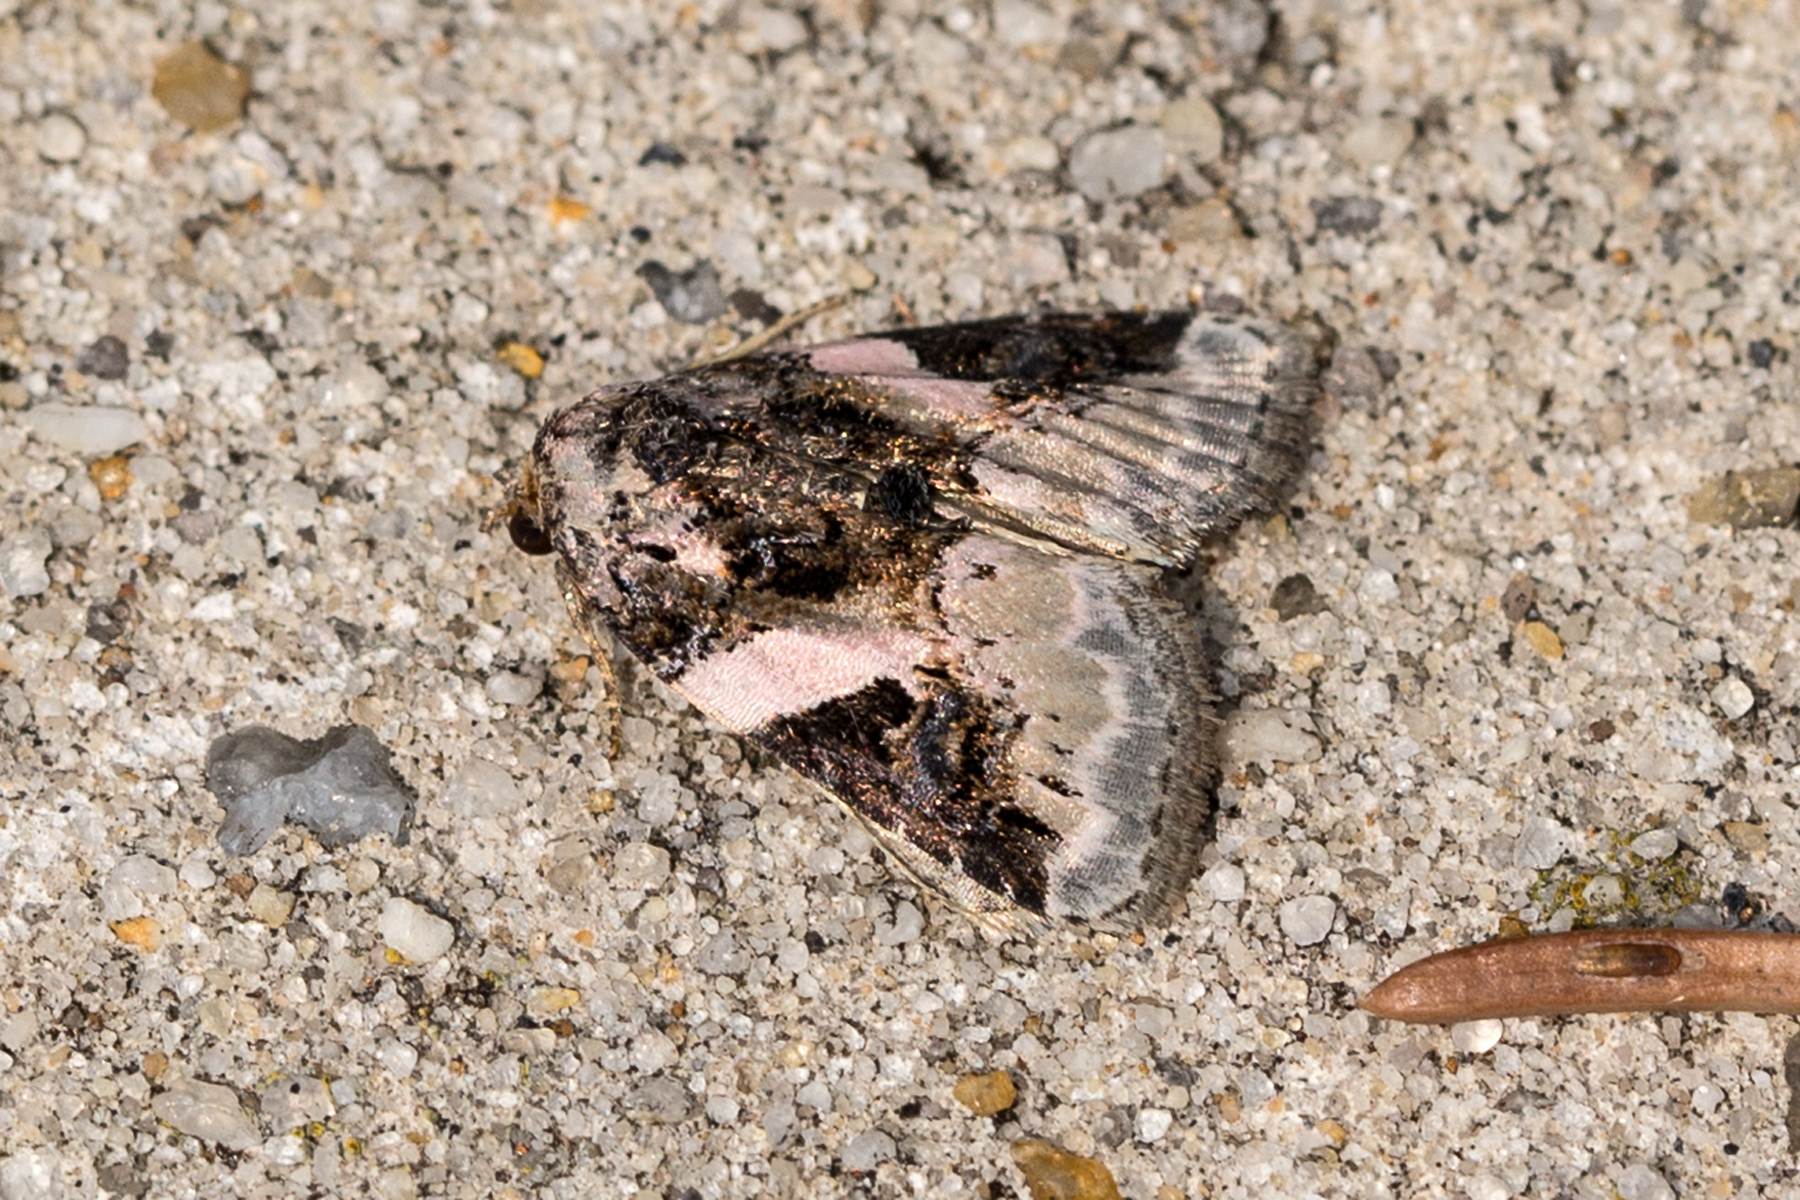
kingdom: Animalia
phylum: Arthropoda
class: Insecta
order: Lepidoptera
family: Noctuidae
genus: Pseudeustrotia
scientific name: Pseudeustrotia carneola
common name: Pink-barred lithacodia moth
